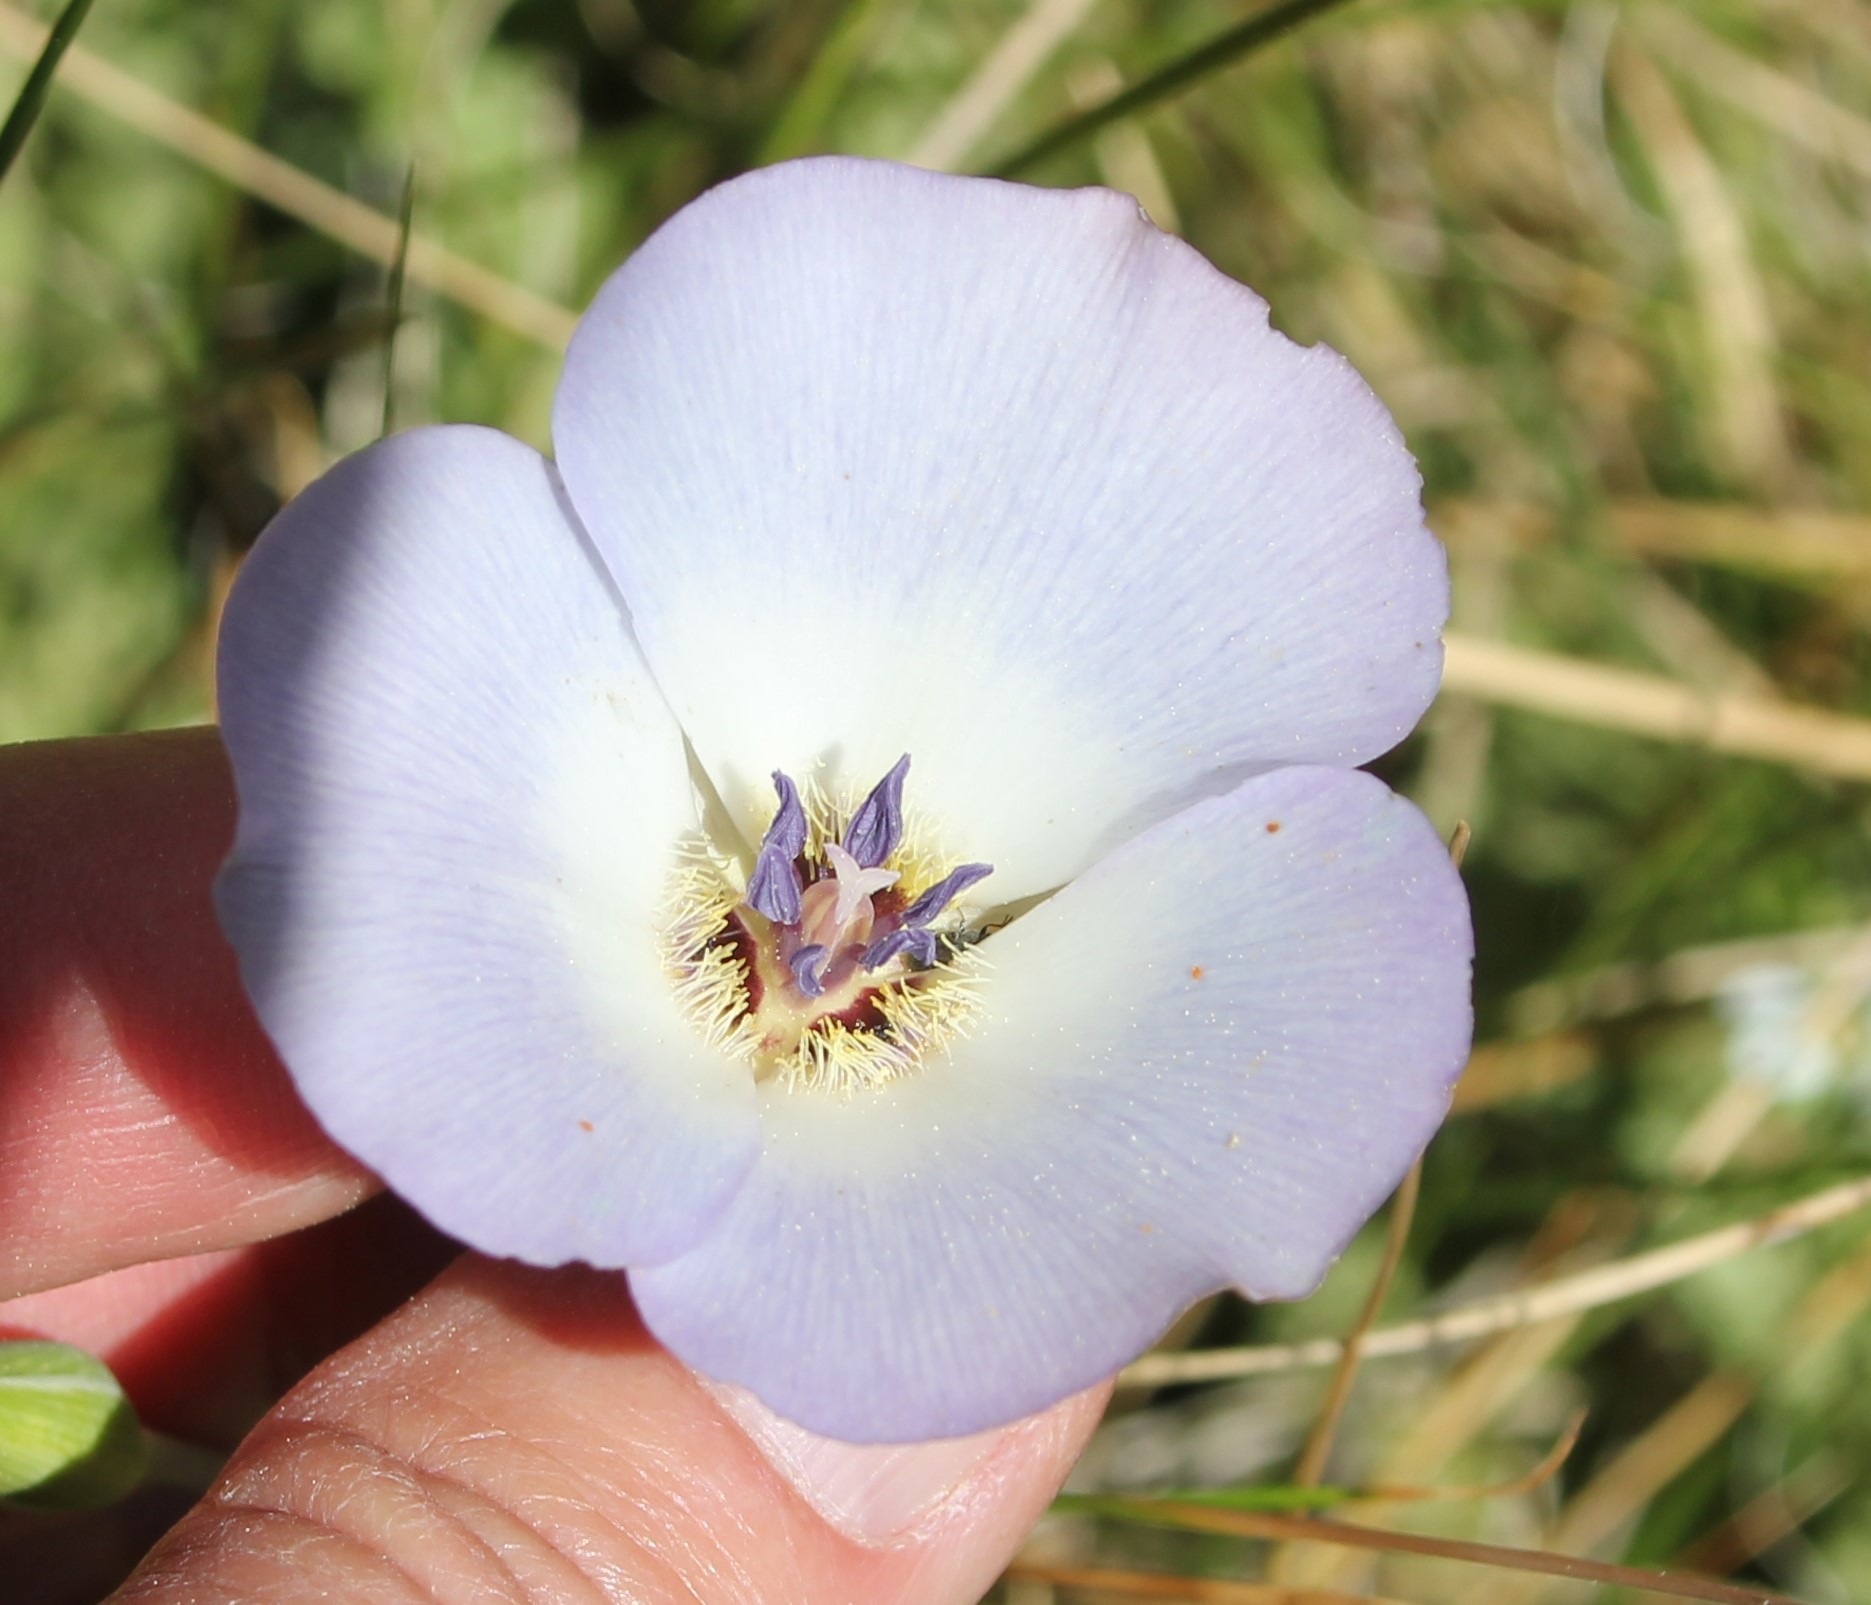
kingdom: Plantae
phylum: Tracheophyta
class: Liliopsida
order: Liliales
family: Liliaceae
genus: Calochortus
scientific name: Calochortus invenustus
